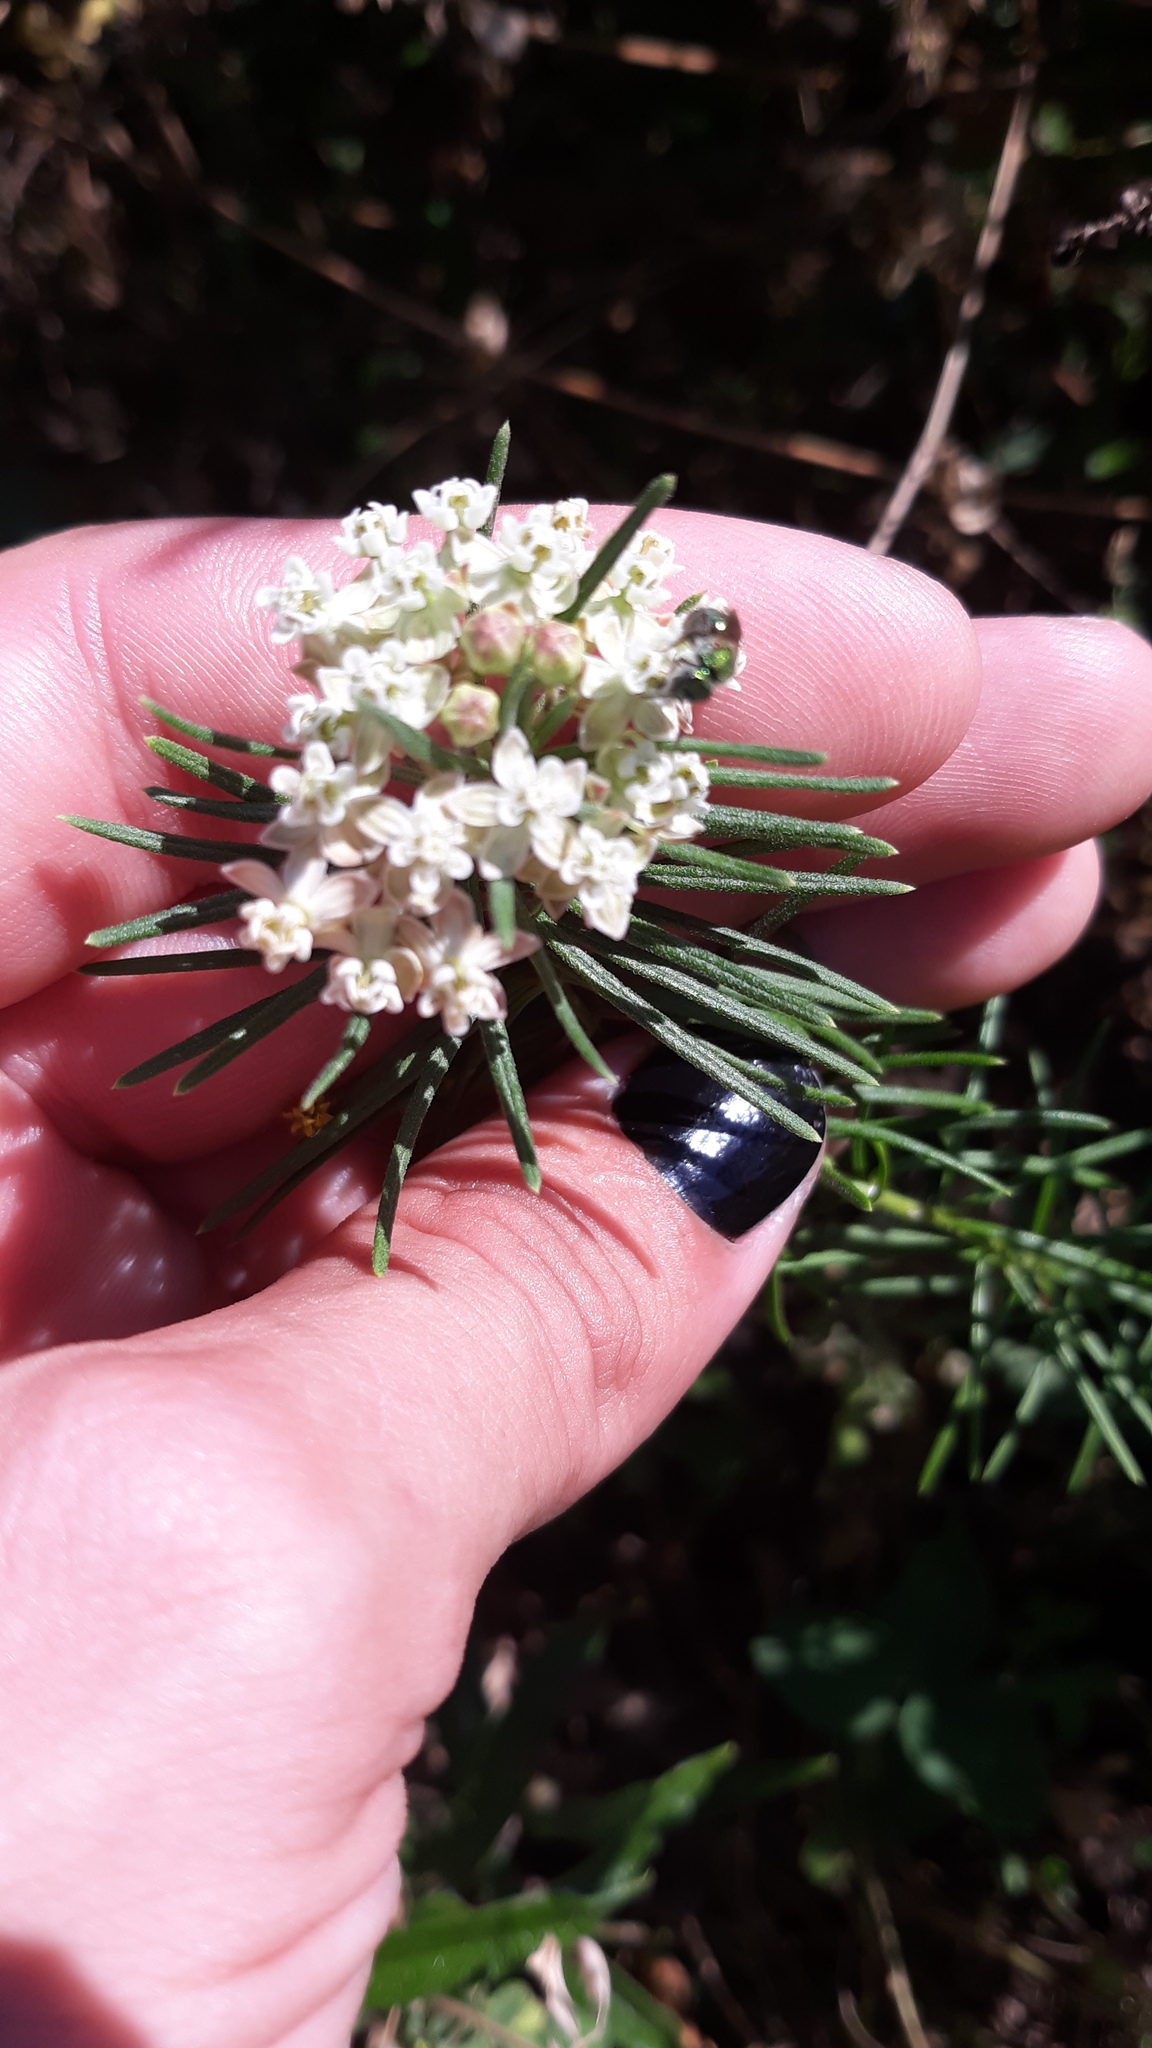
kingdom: Plantae
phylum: Tracheophyta
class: Magnoliopsida
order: Gentianales
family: Apocynaceae
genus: Asclepias
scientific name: Asclepias verticillata
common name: Eastern whorled milkweed
